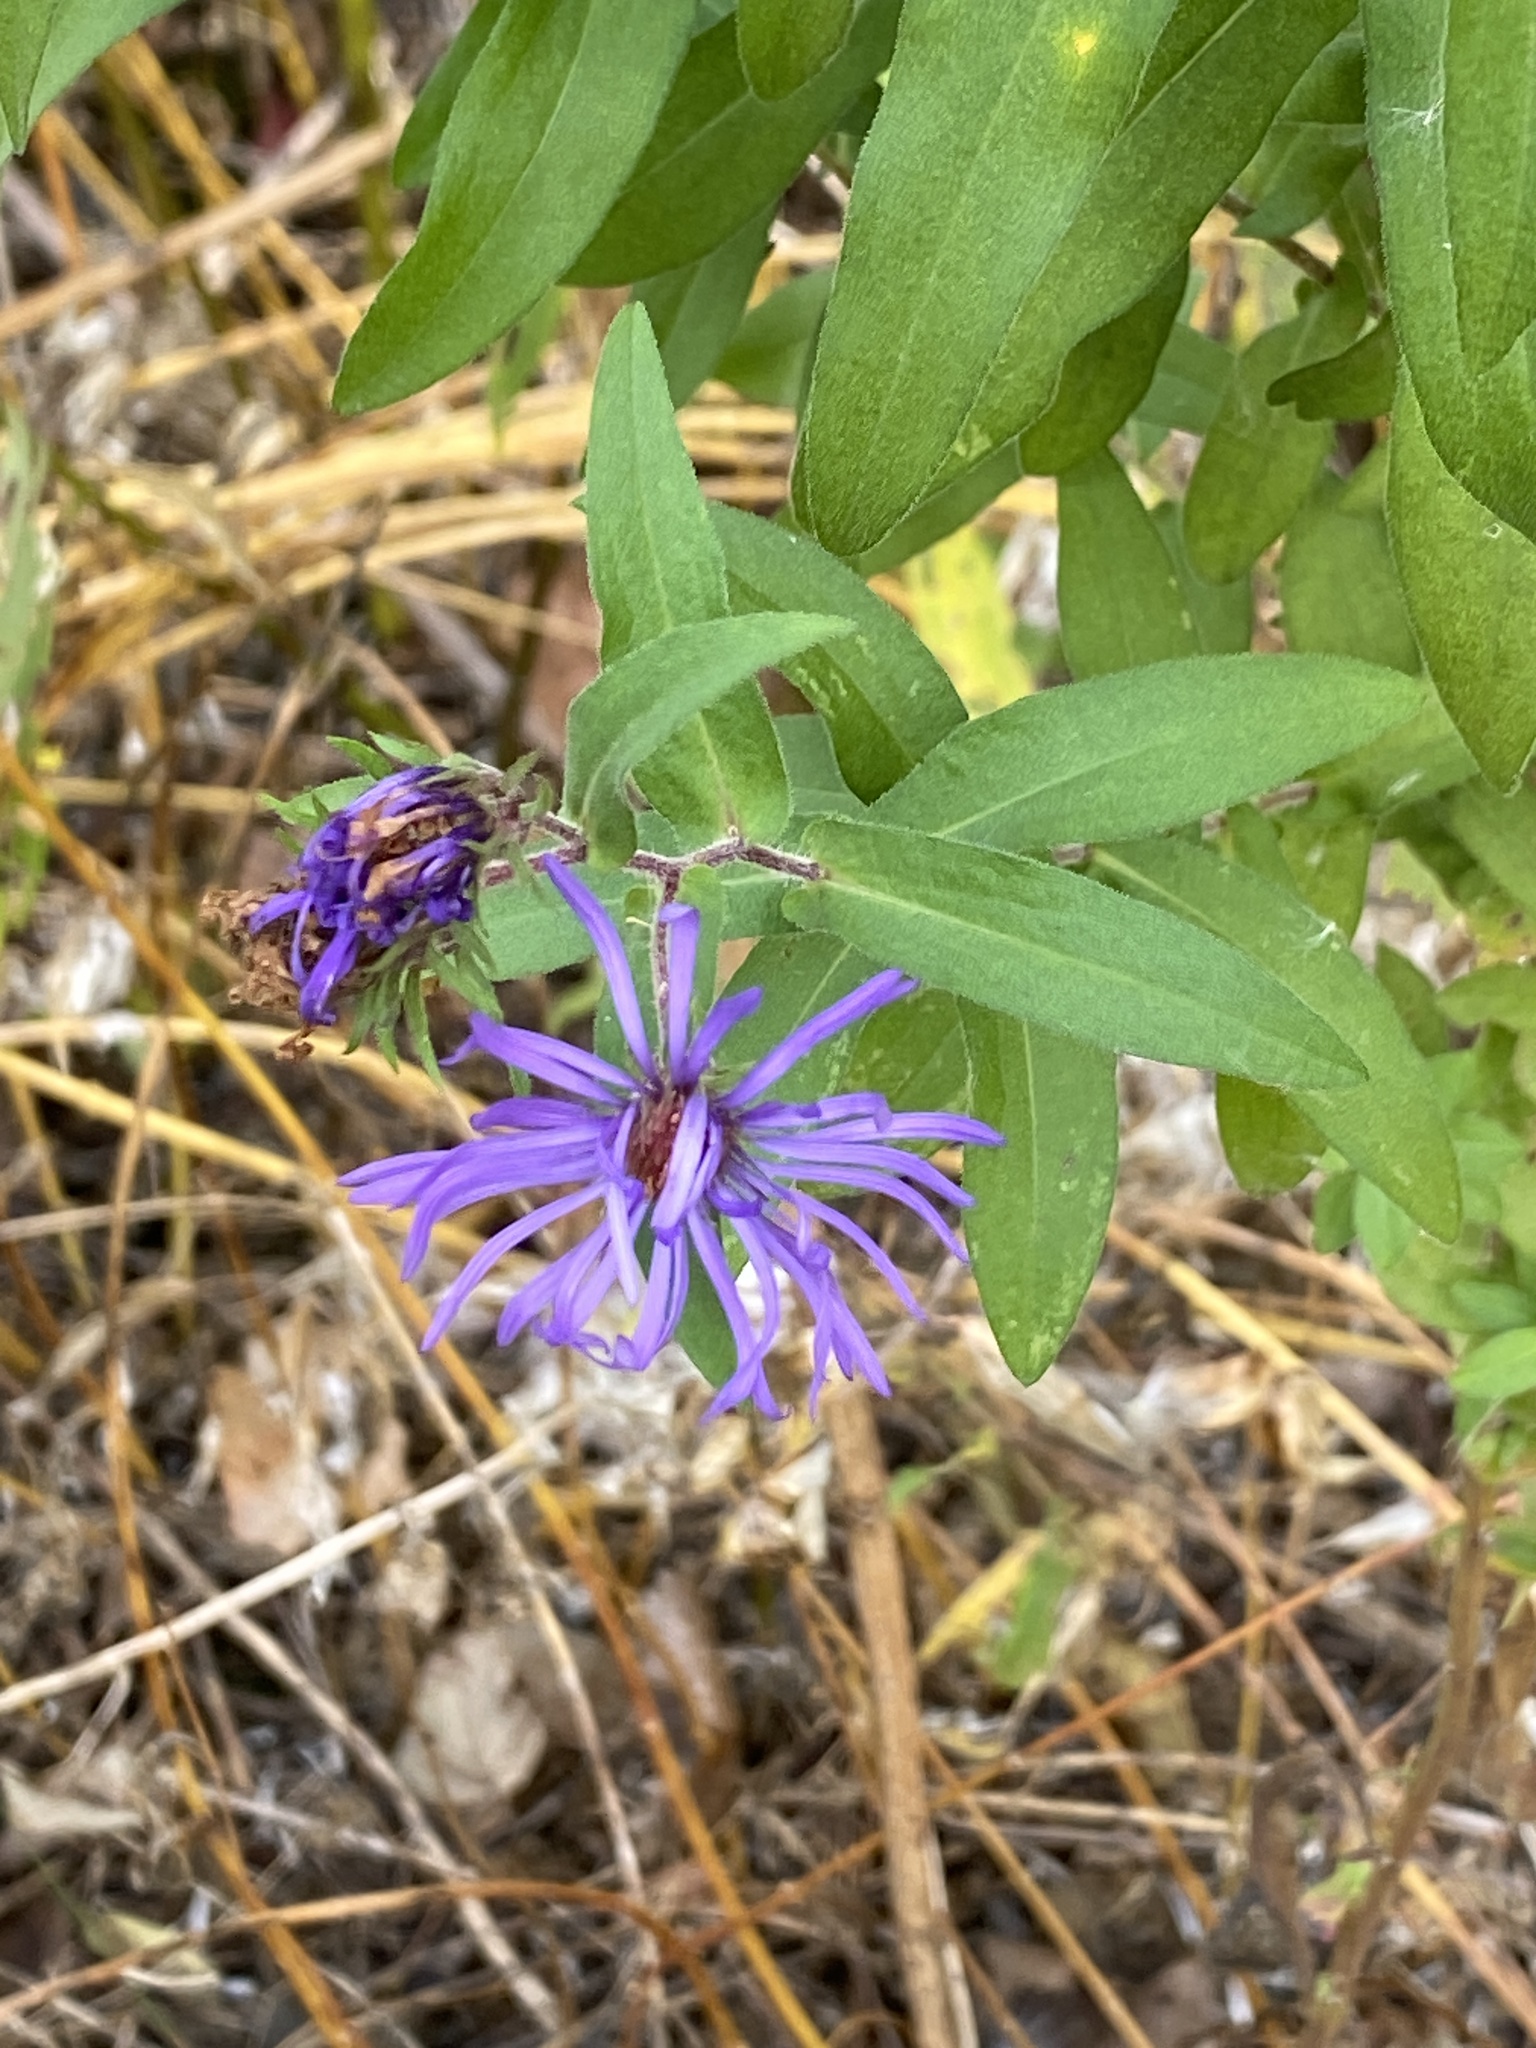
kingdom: Plantae
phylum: Tracheophyta
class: Magnoliopsida
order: Asterales
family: Asteraceae
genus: Symphyotrichum
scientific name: Symphyotrichum novae-angliae
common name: Michaelmas daisy
